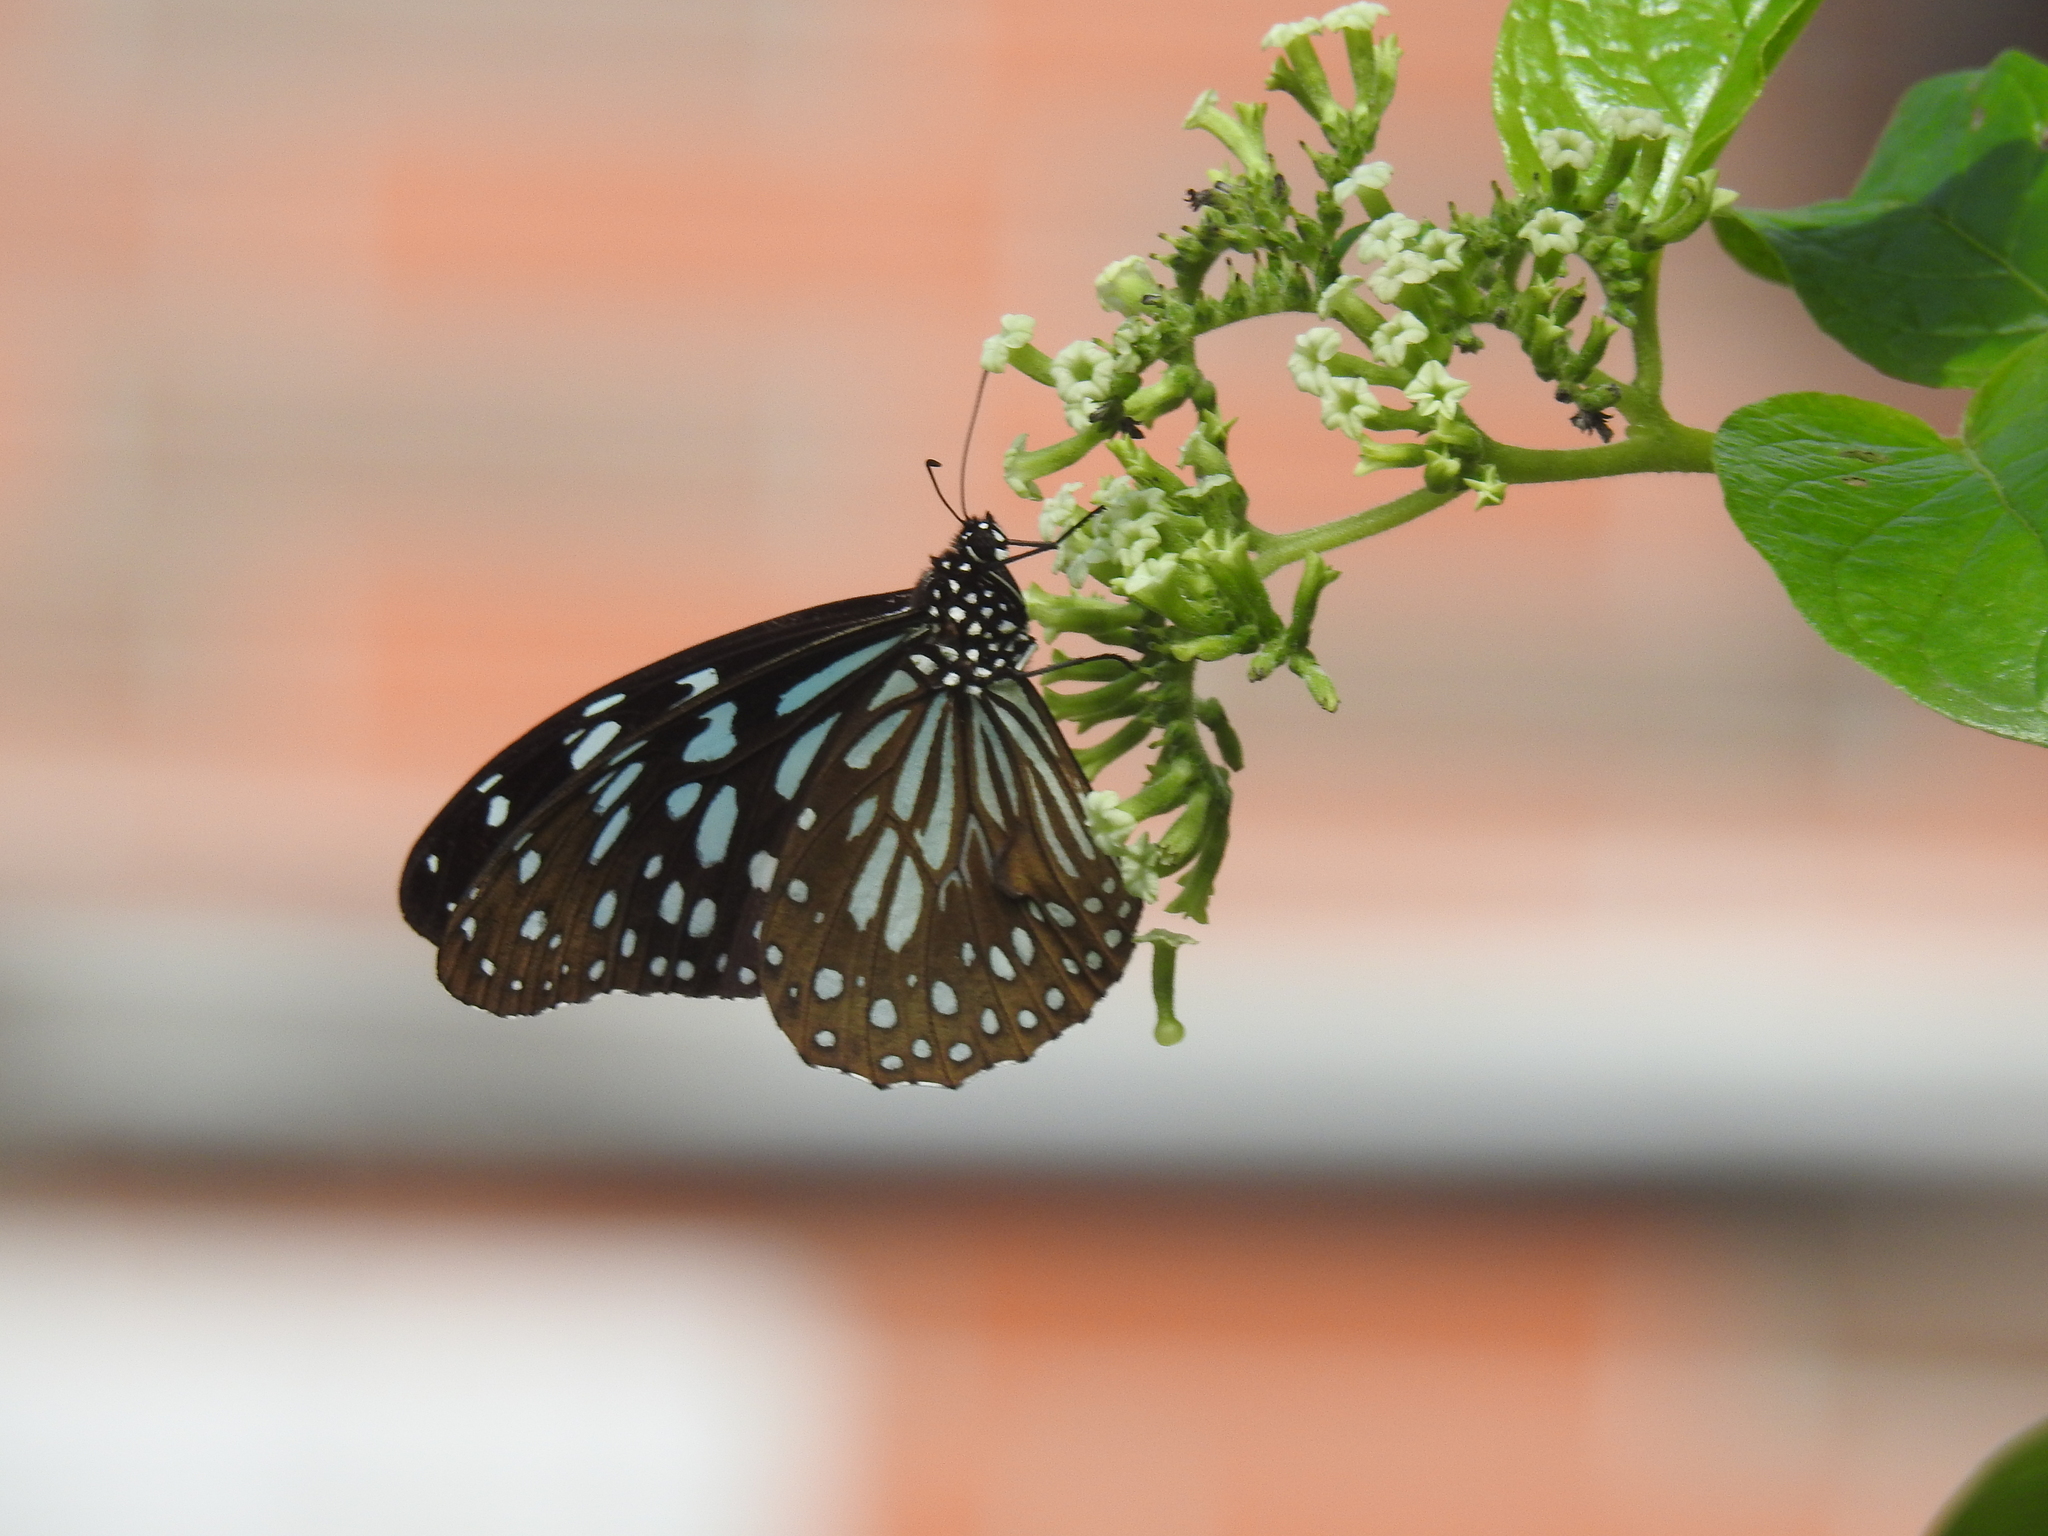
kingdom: Animalia
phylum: Arthropoda
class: Insecta
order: Lepidoptera
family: Nymphalidae
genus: Tirumala
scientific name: Tirumala limniace
